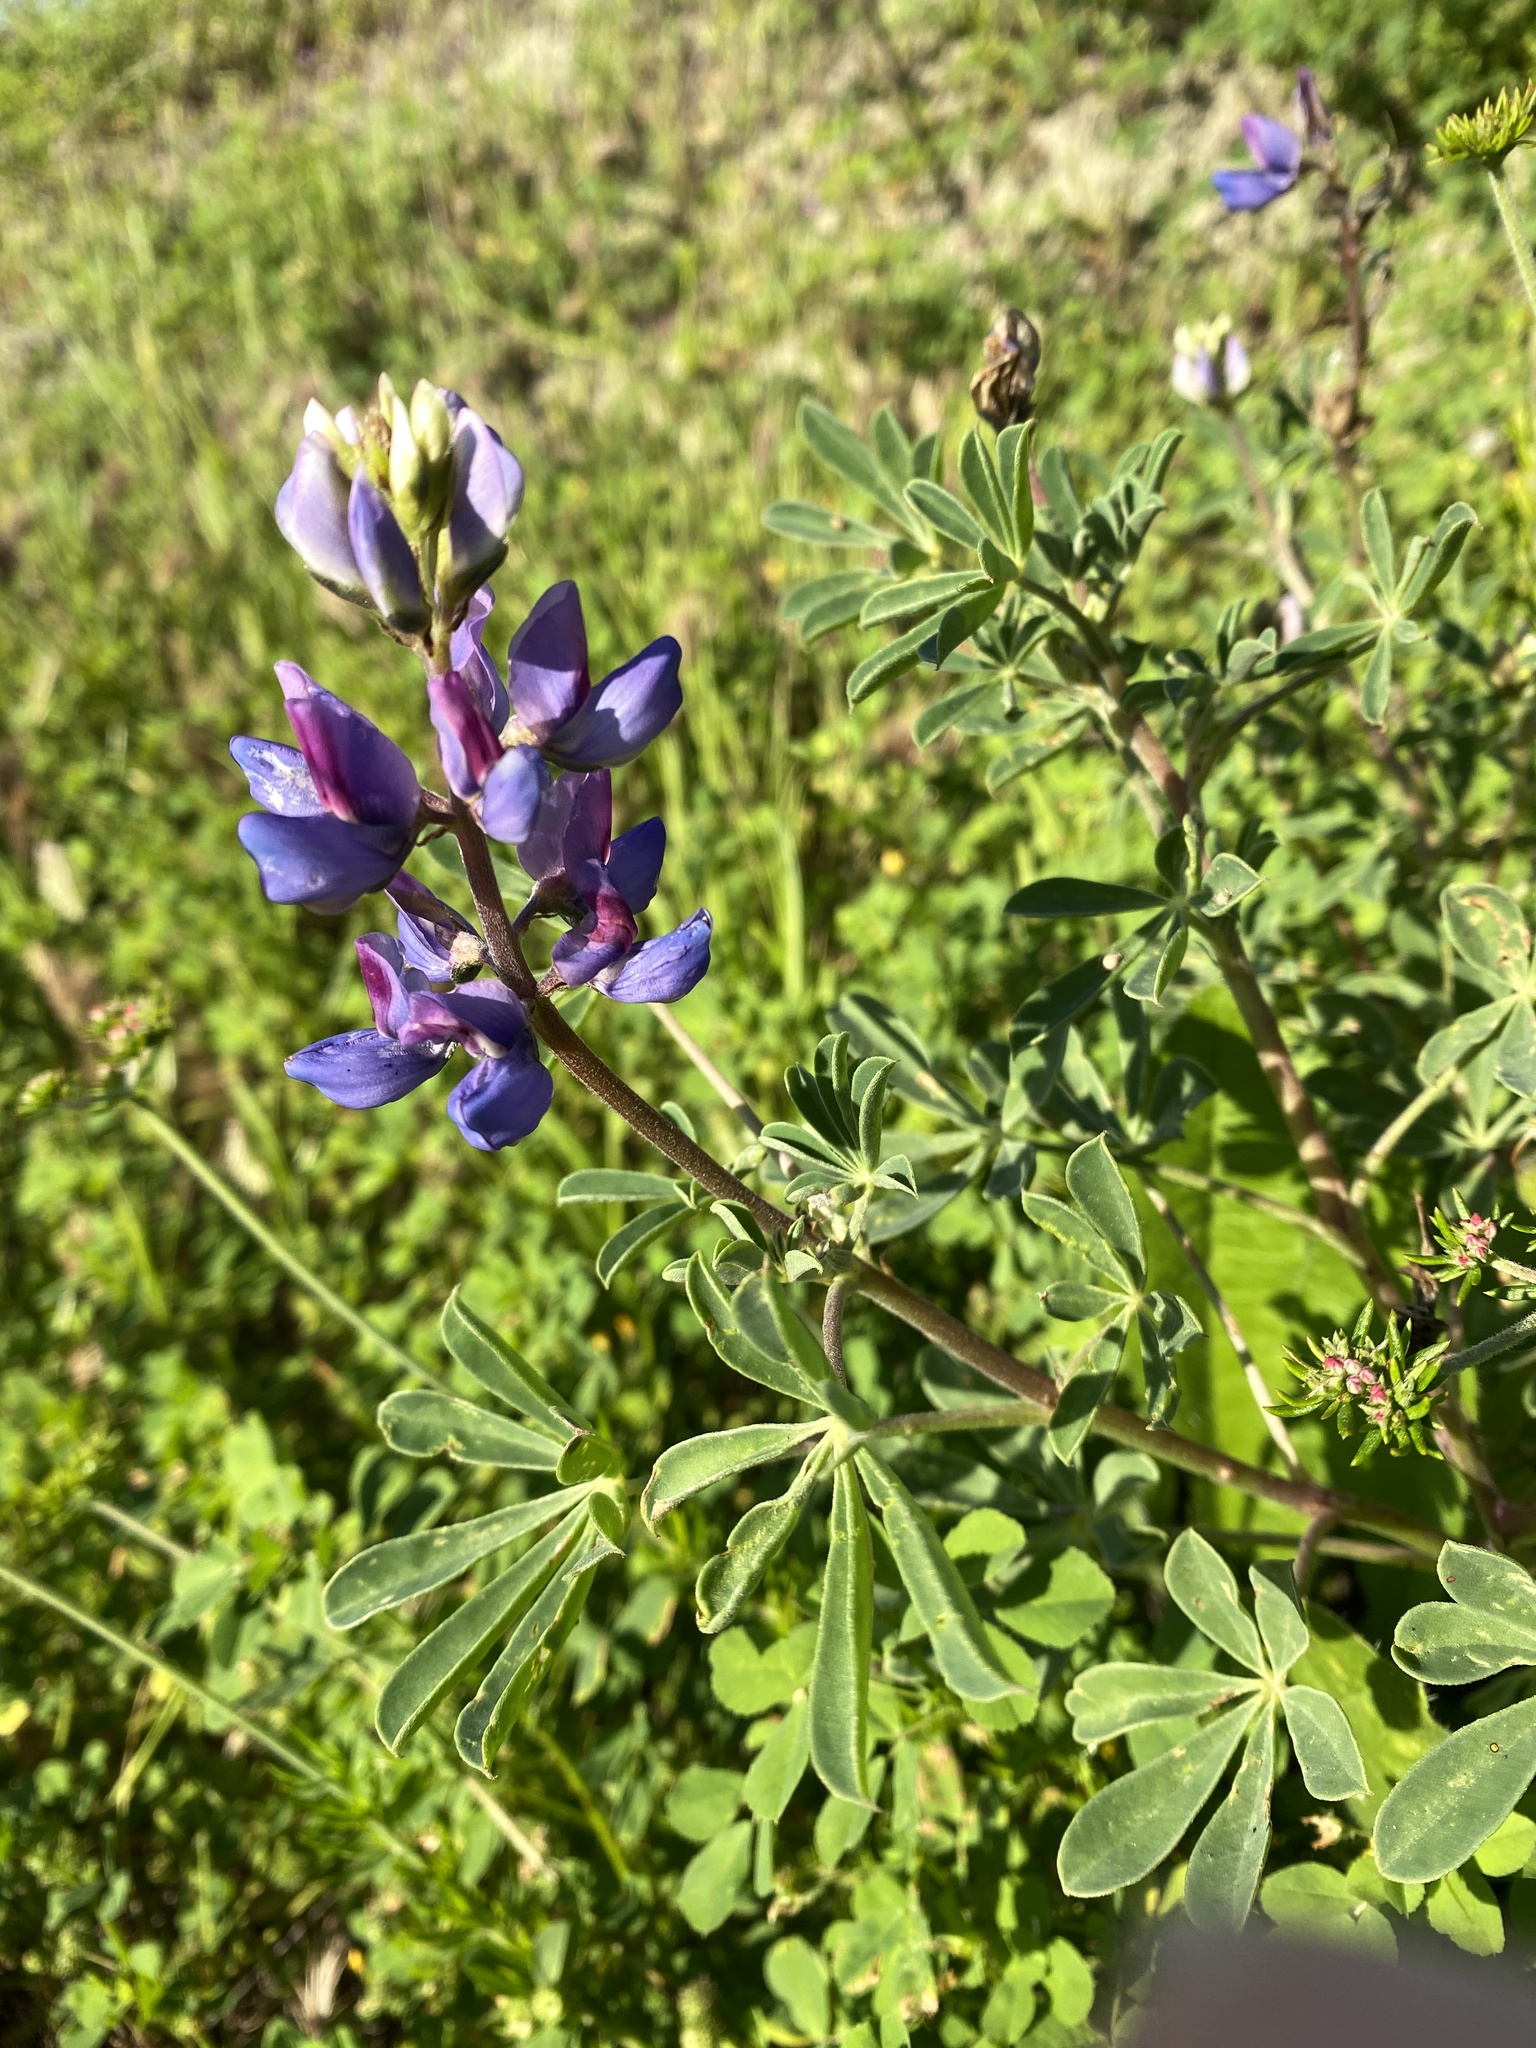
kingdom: Plantae
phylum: Tracheophyta
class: Magnoliopsida
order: Fabales
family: Fabaceae
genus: Lupinus
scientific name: Lupinus succulentus
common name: Arroyo lupine
